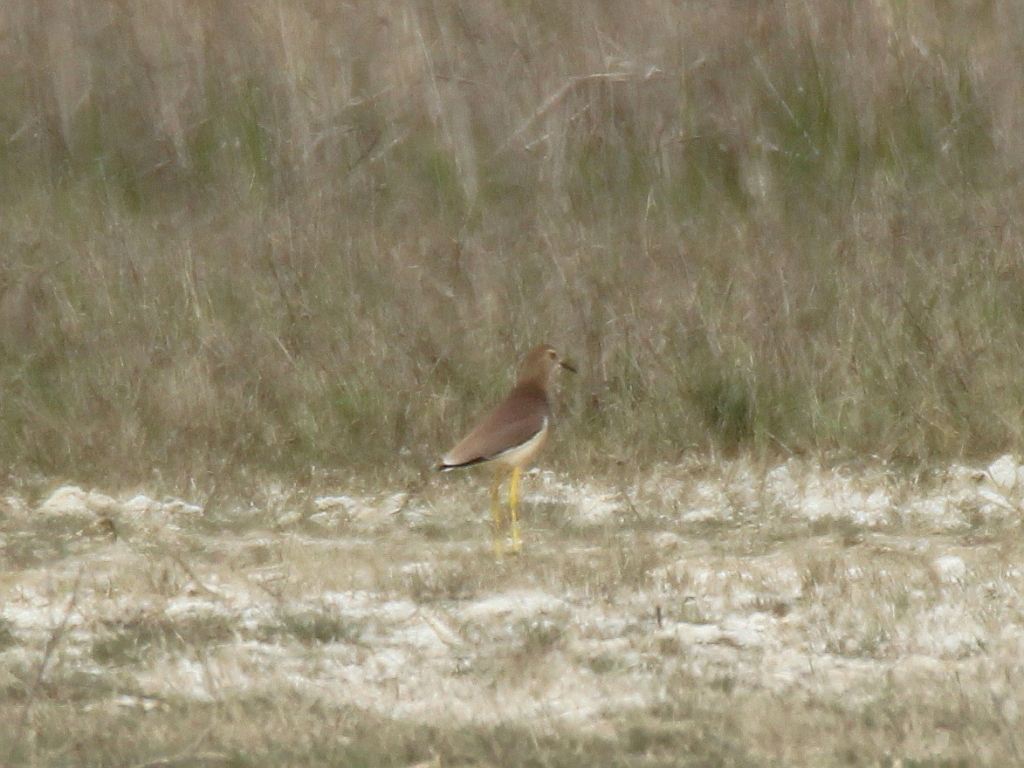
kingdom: Animalia
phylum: Chordata
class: Aves
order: Charadriiformes
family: Charadriidae
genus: Vanellus
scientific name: Vanellus leucurus
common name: White-tailed lapwing
